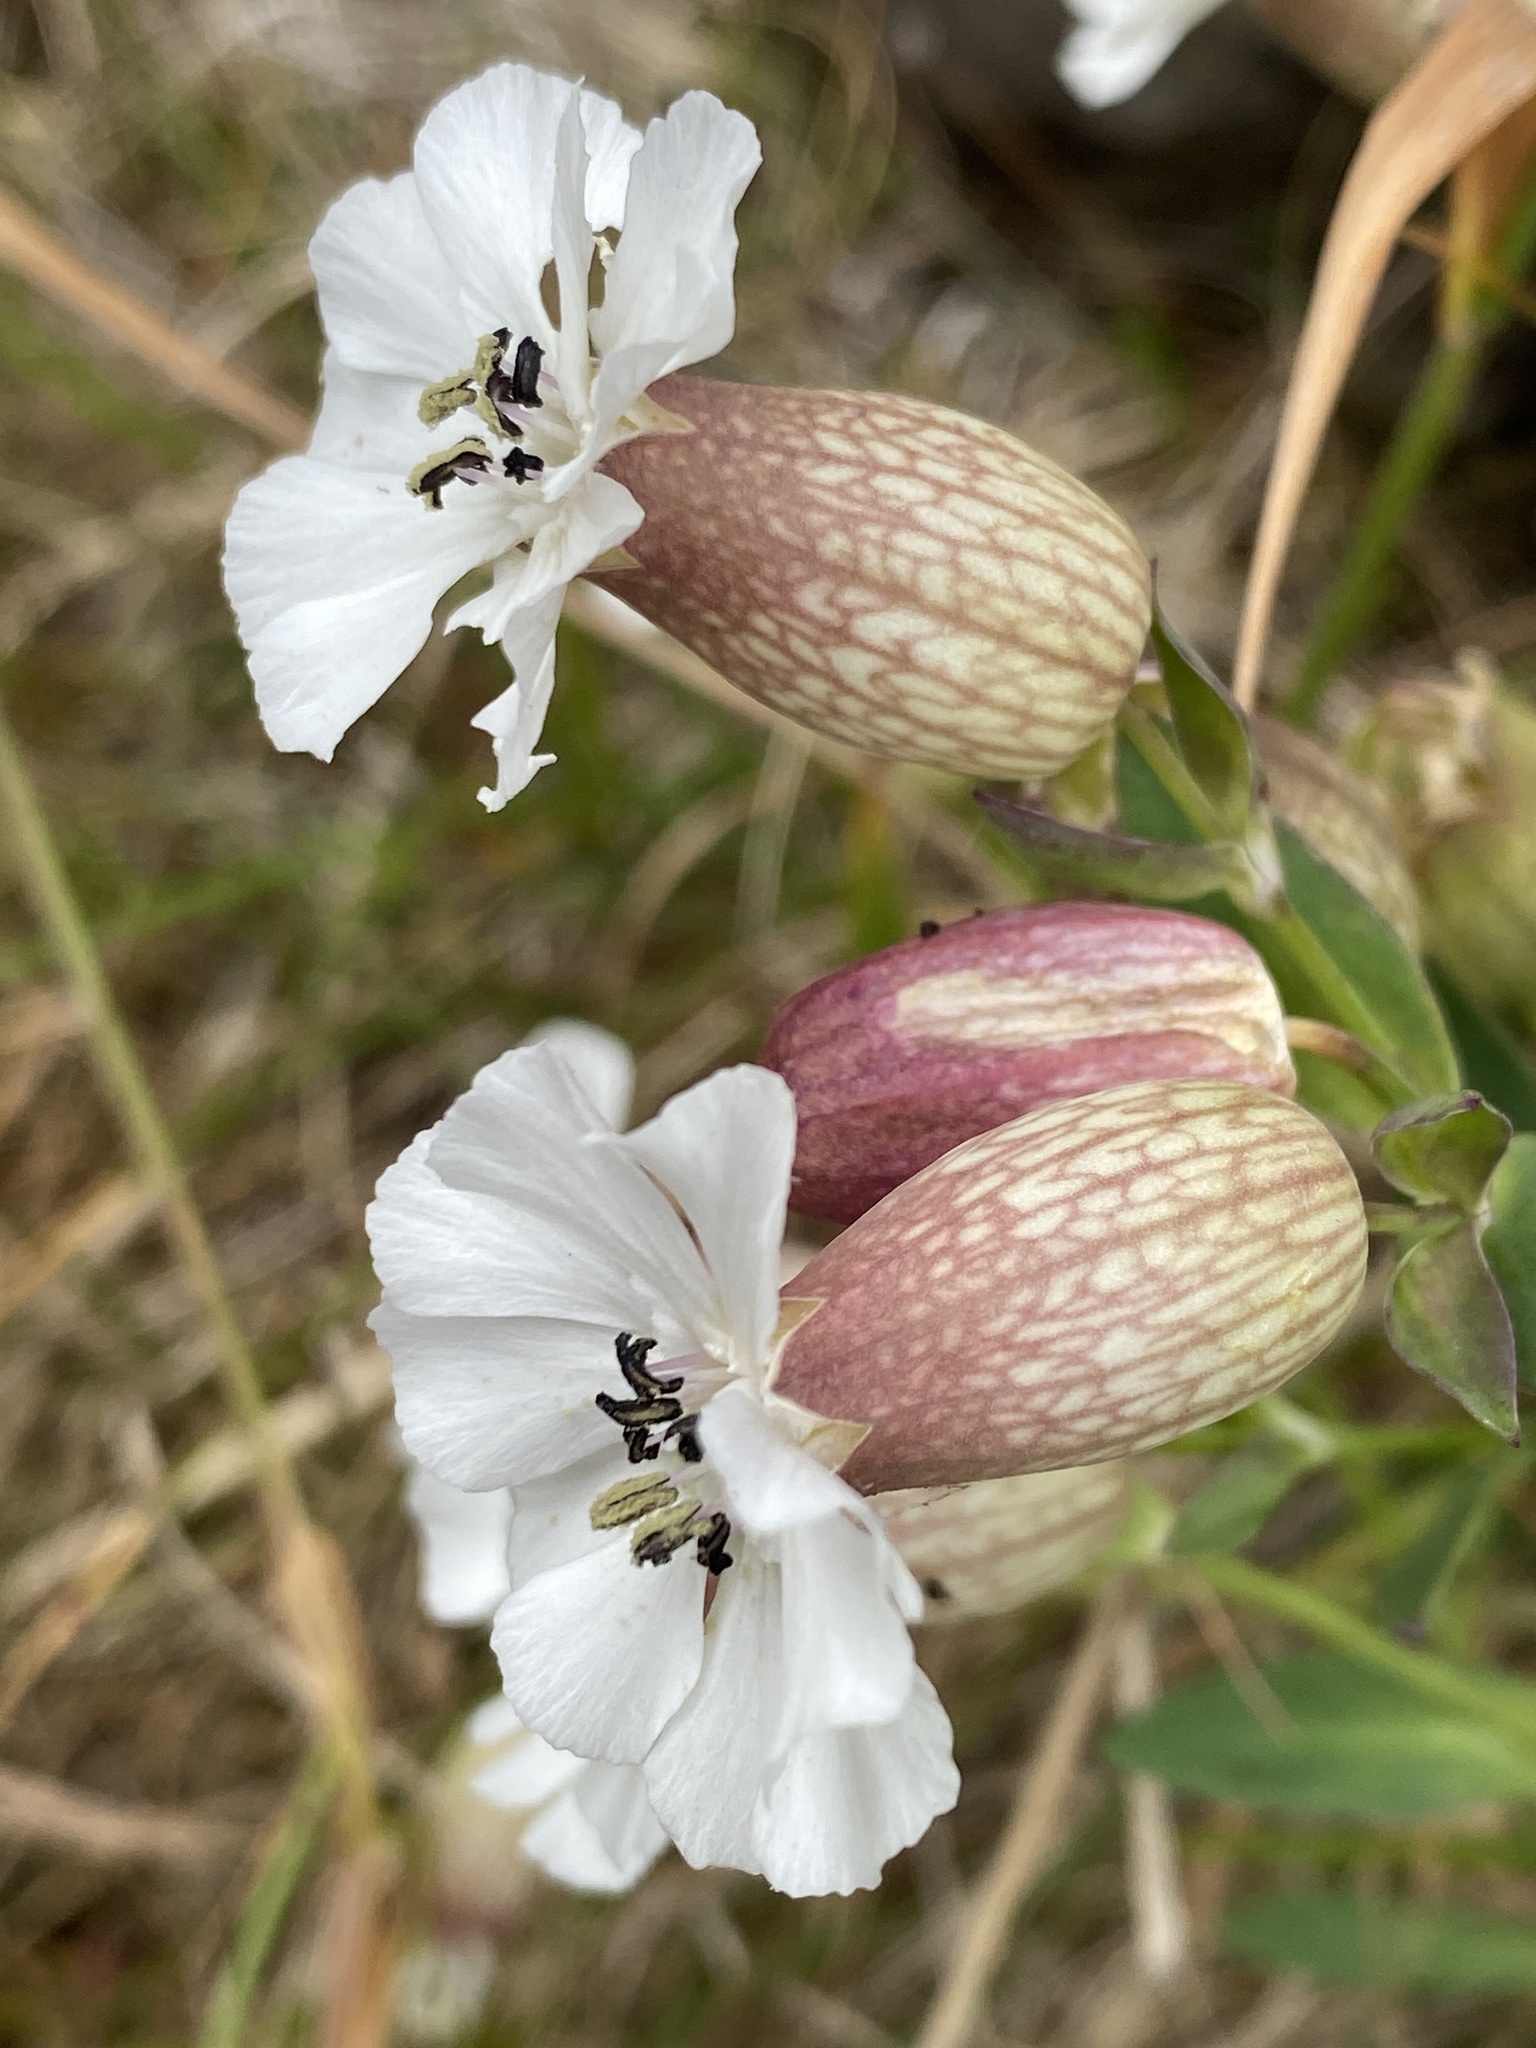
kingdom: Plantae
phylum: Tracheophyta
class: Magnoliopsida
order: Caryophyllales
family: Caryophyllaceae
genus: Silene
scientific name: Silene uniflora
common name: Sea campion
